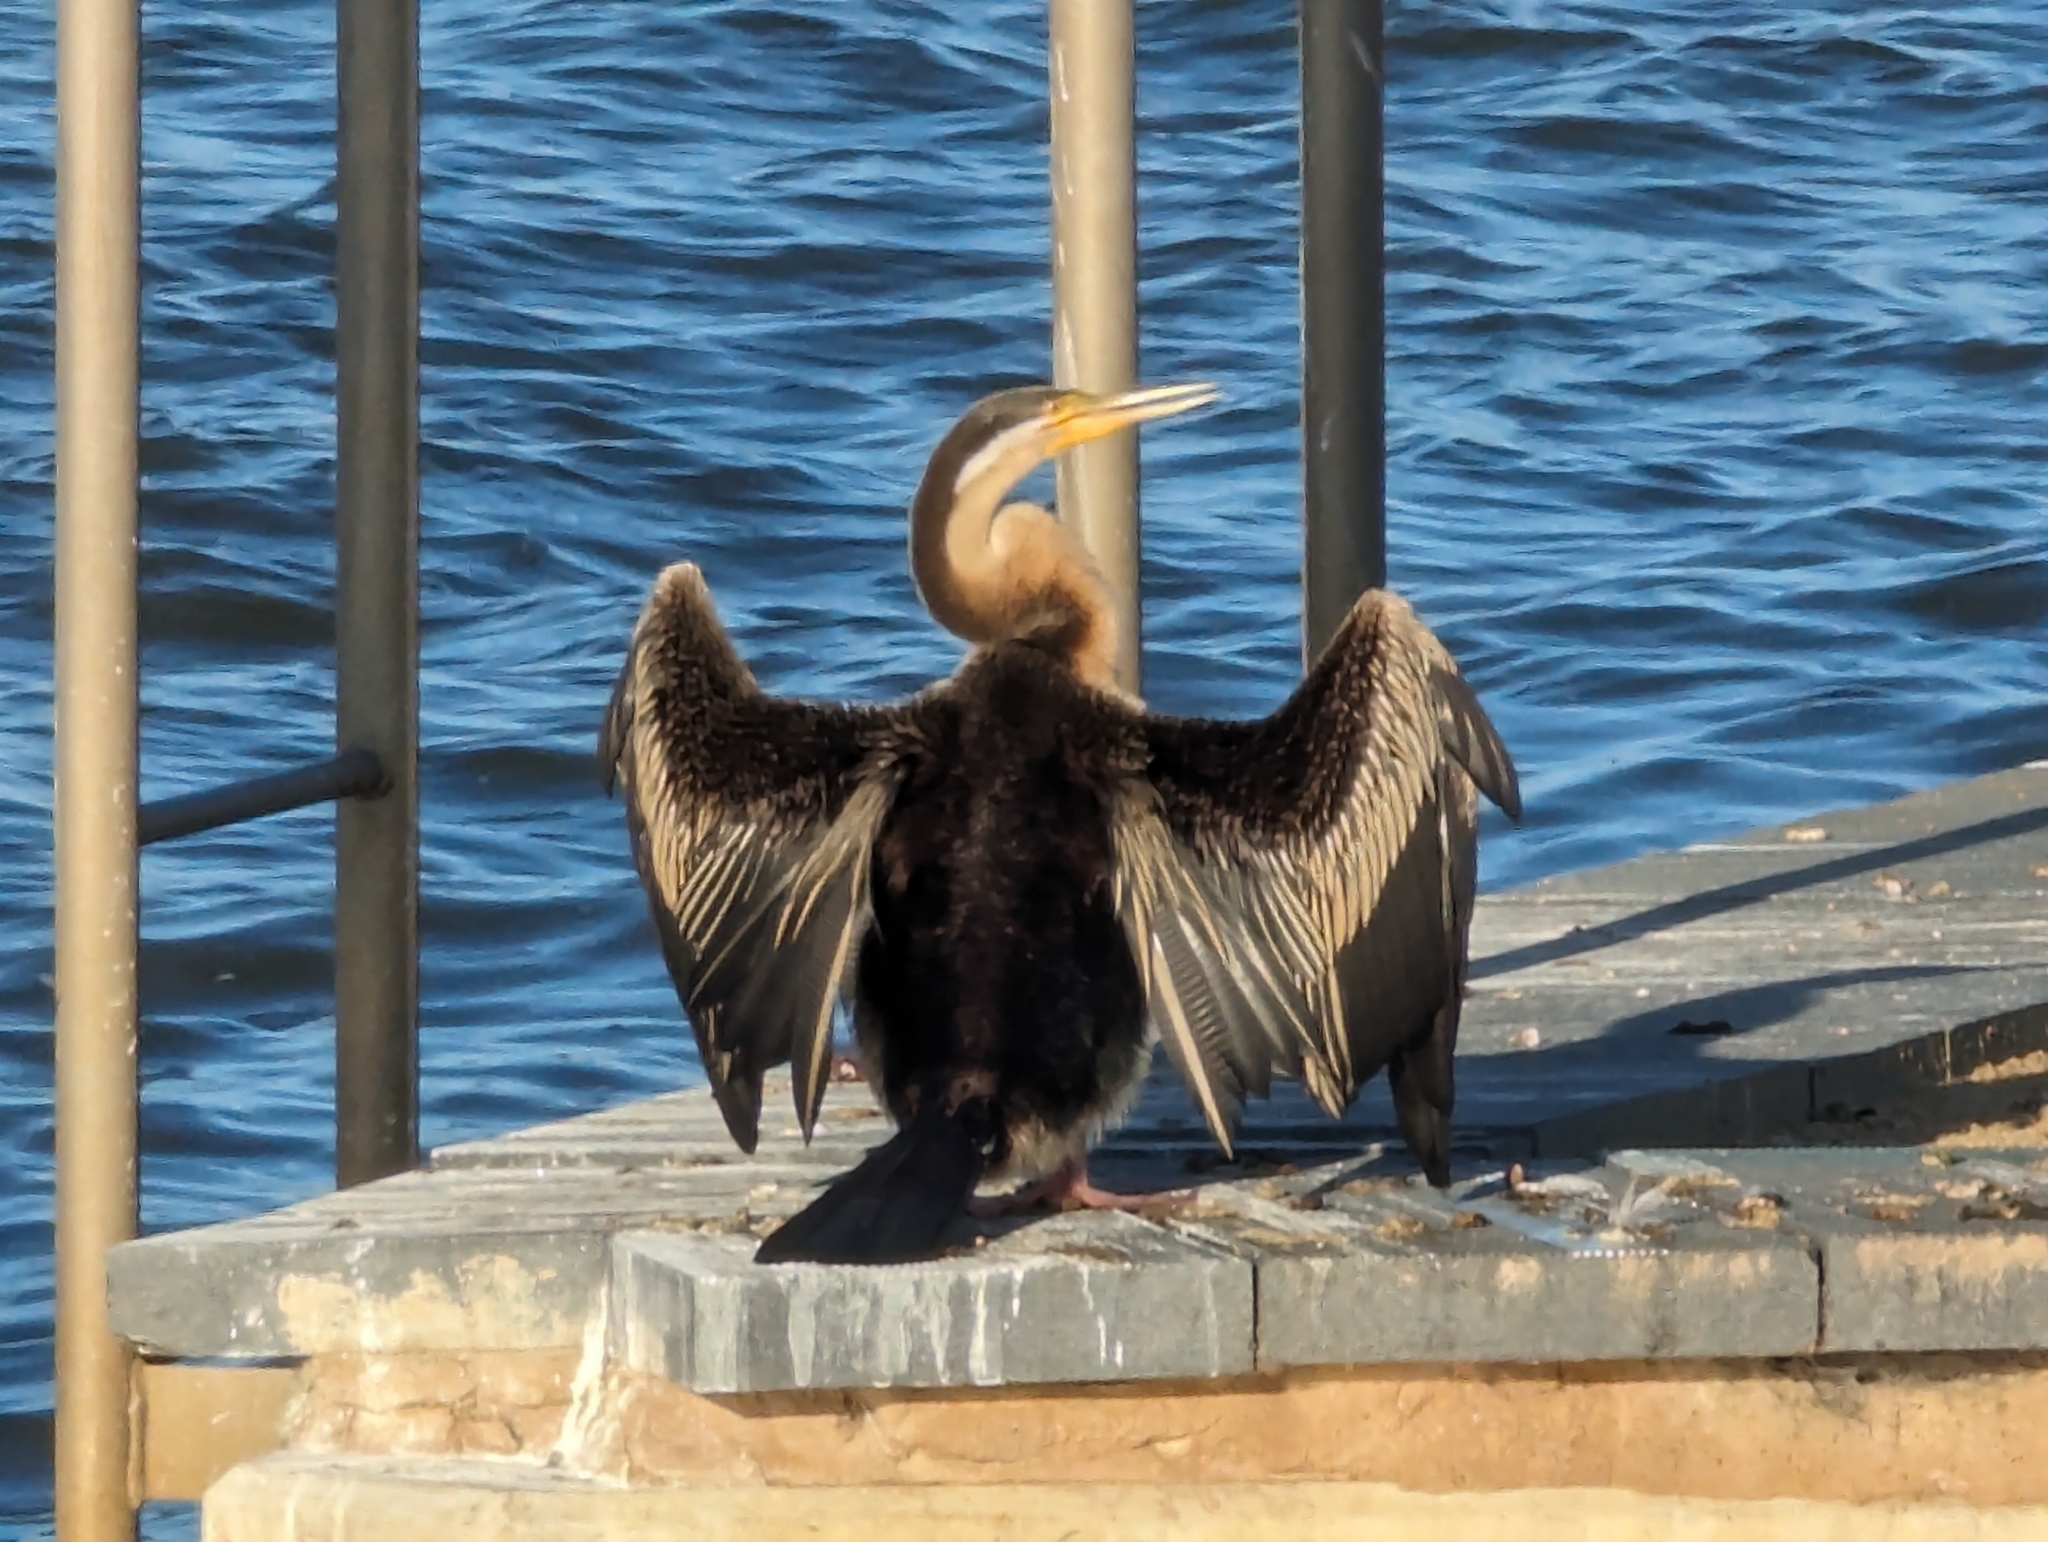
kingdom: Animalia
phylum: Chordata
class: Aves
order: Suliformes
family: Anhingidae
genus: Anhinga
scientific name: Anhinga novaehollandiae
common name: Australasian darter
